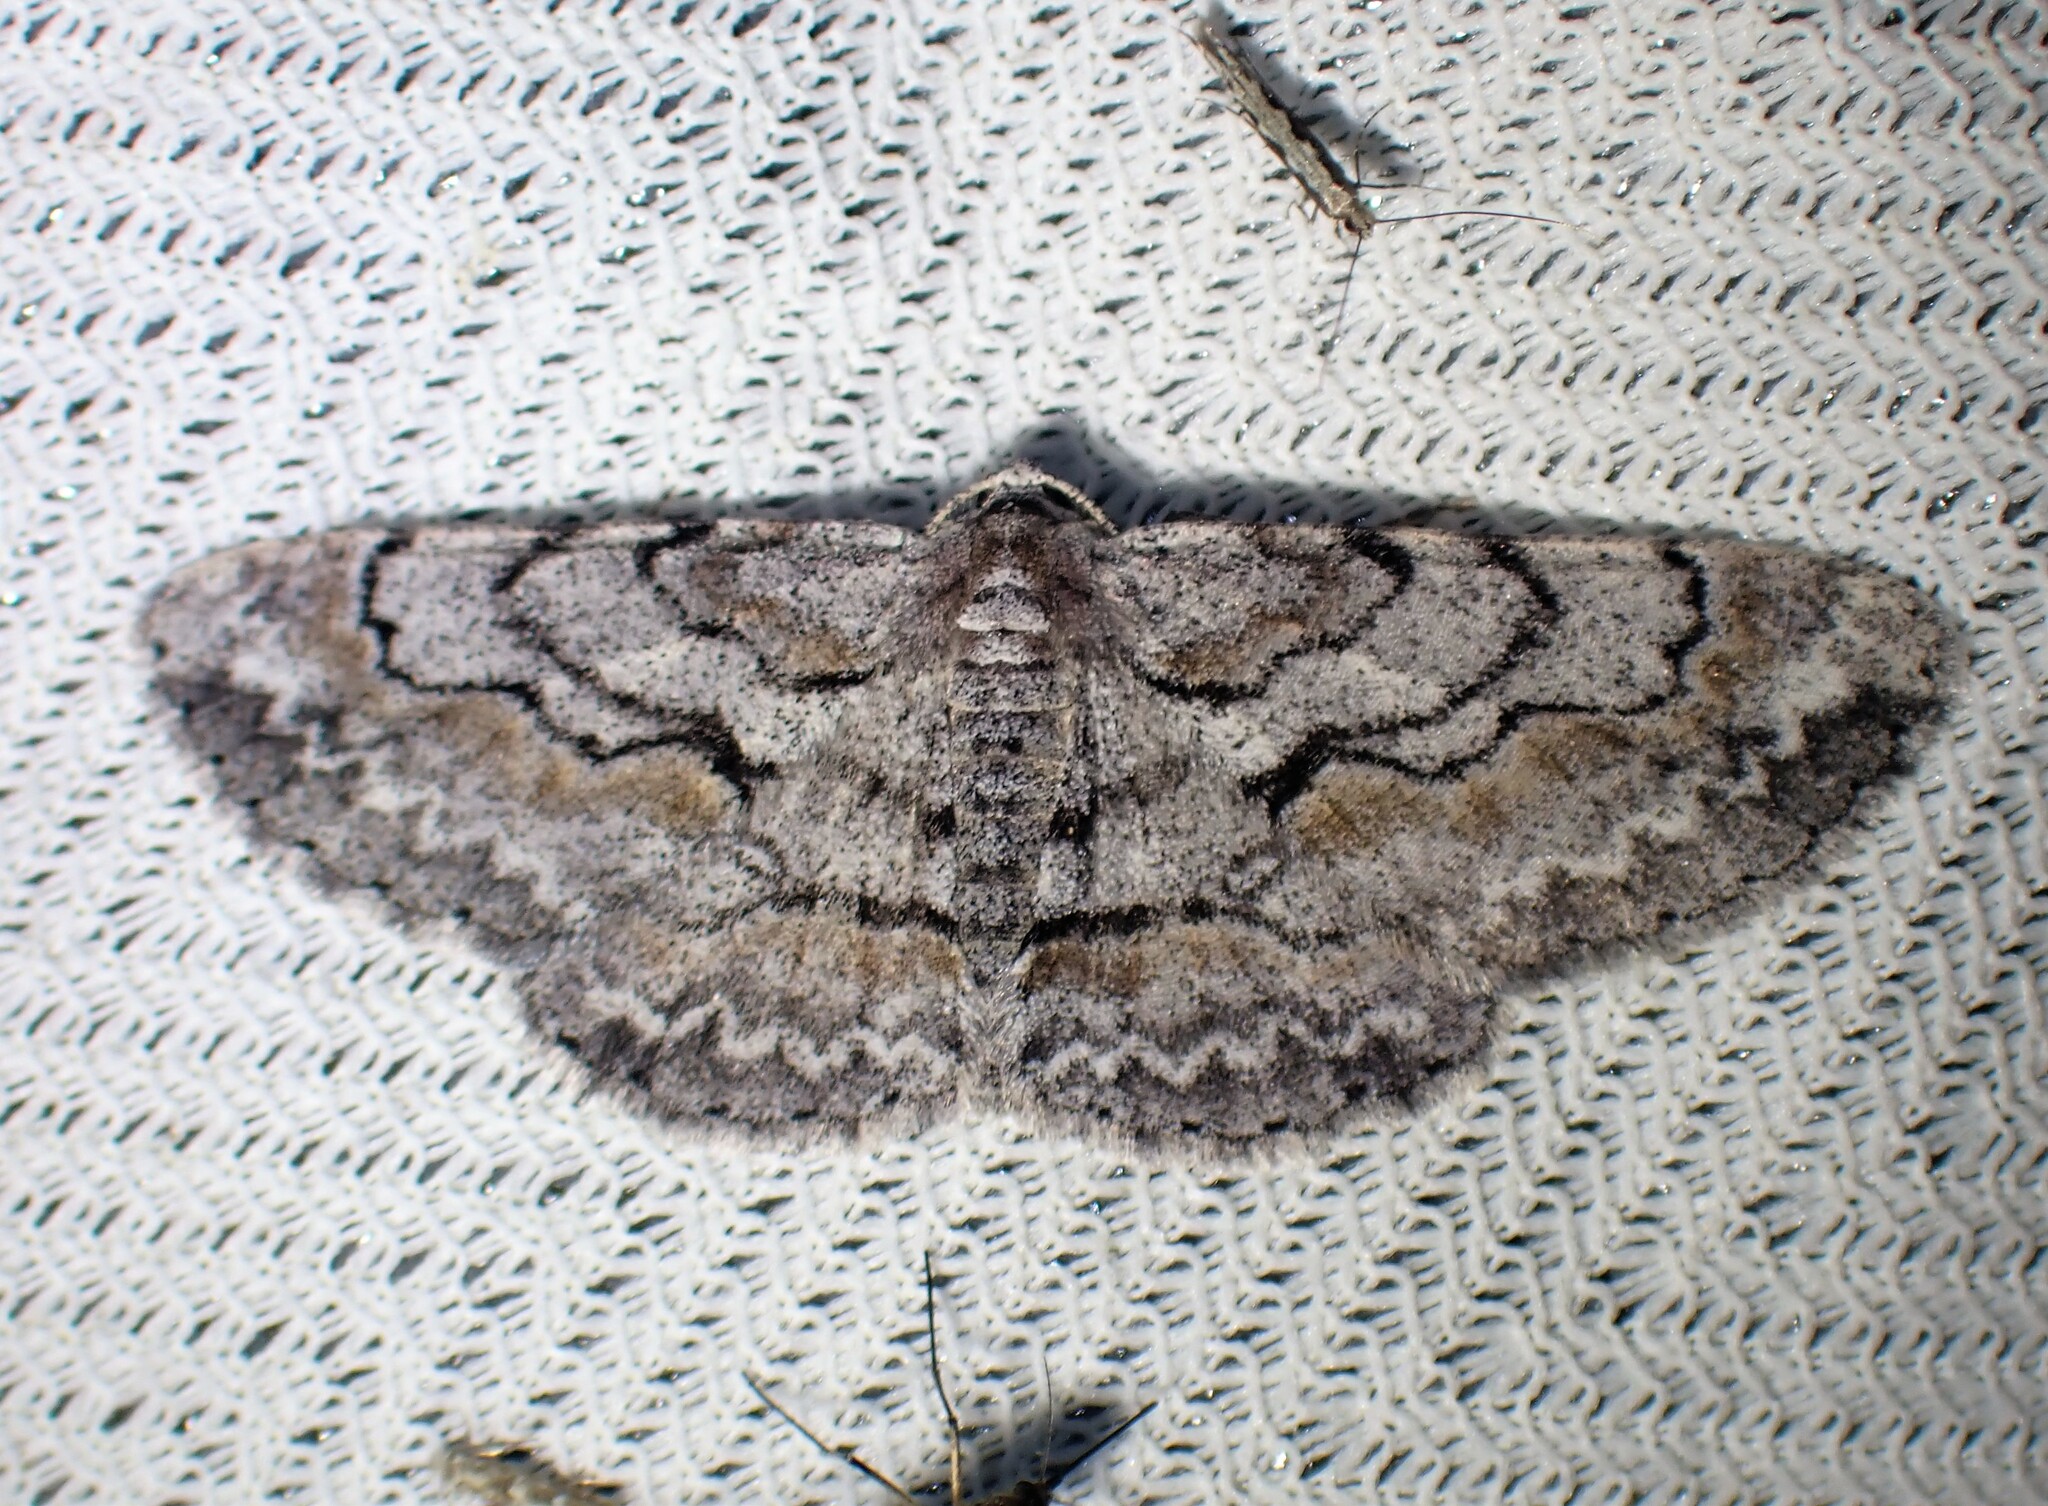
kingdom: Animalia
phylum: Arthropoda
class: Insecta
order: Lepidoptera
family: Geometridae
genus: Iridopsis
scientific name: Iridopsis vellivolata
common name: Large purplish gray
